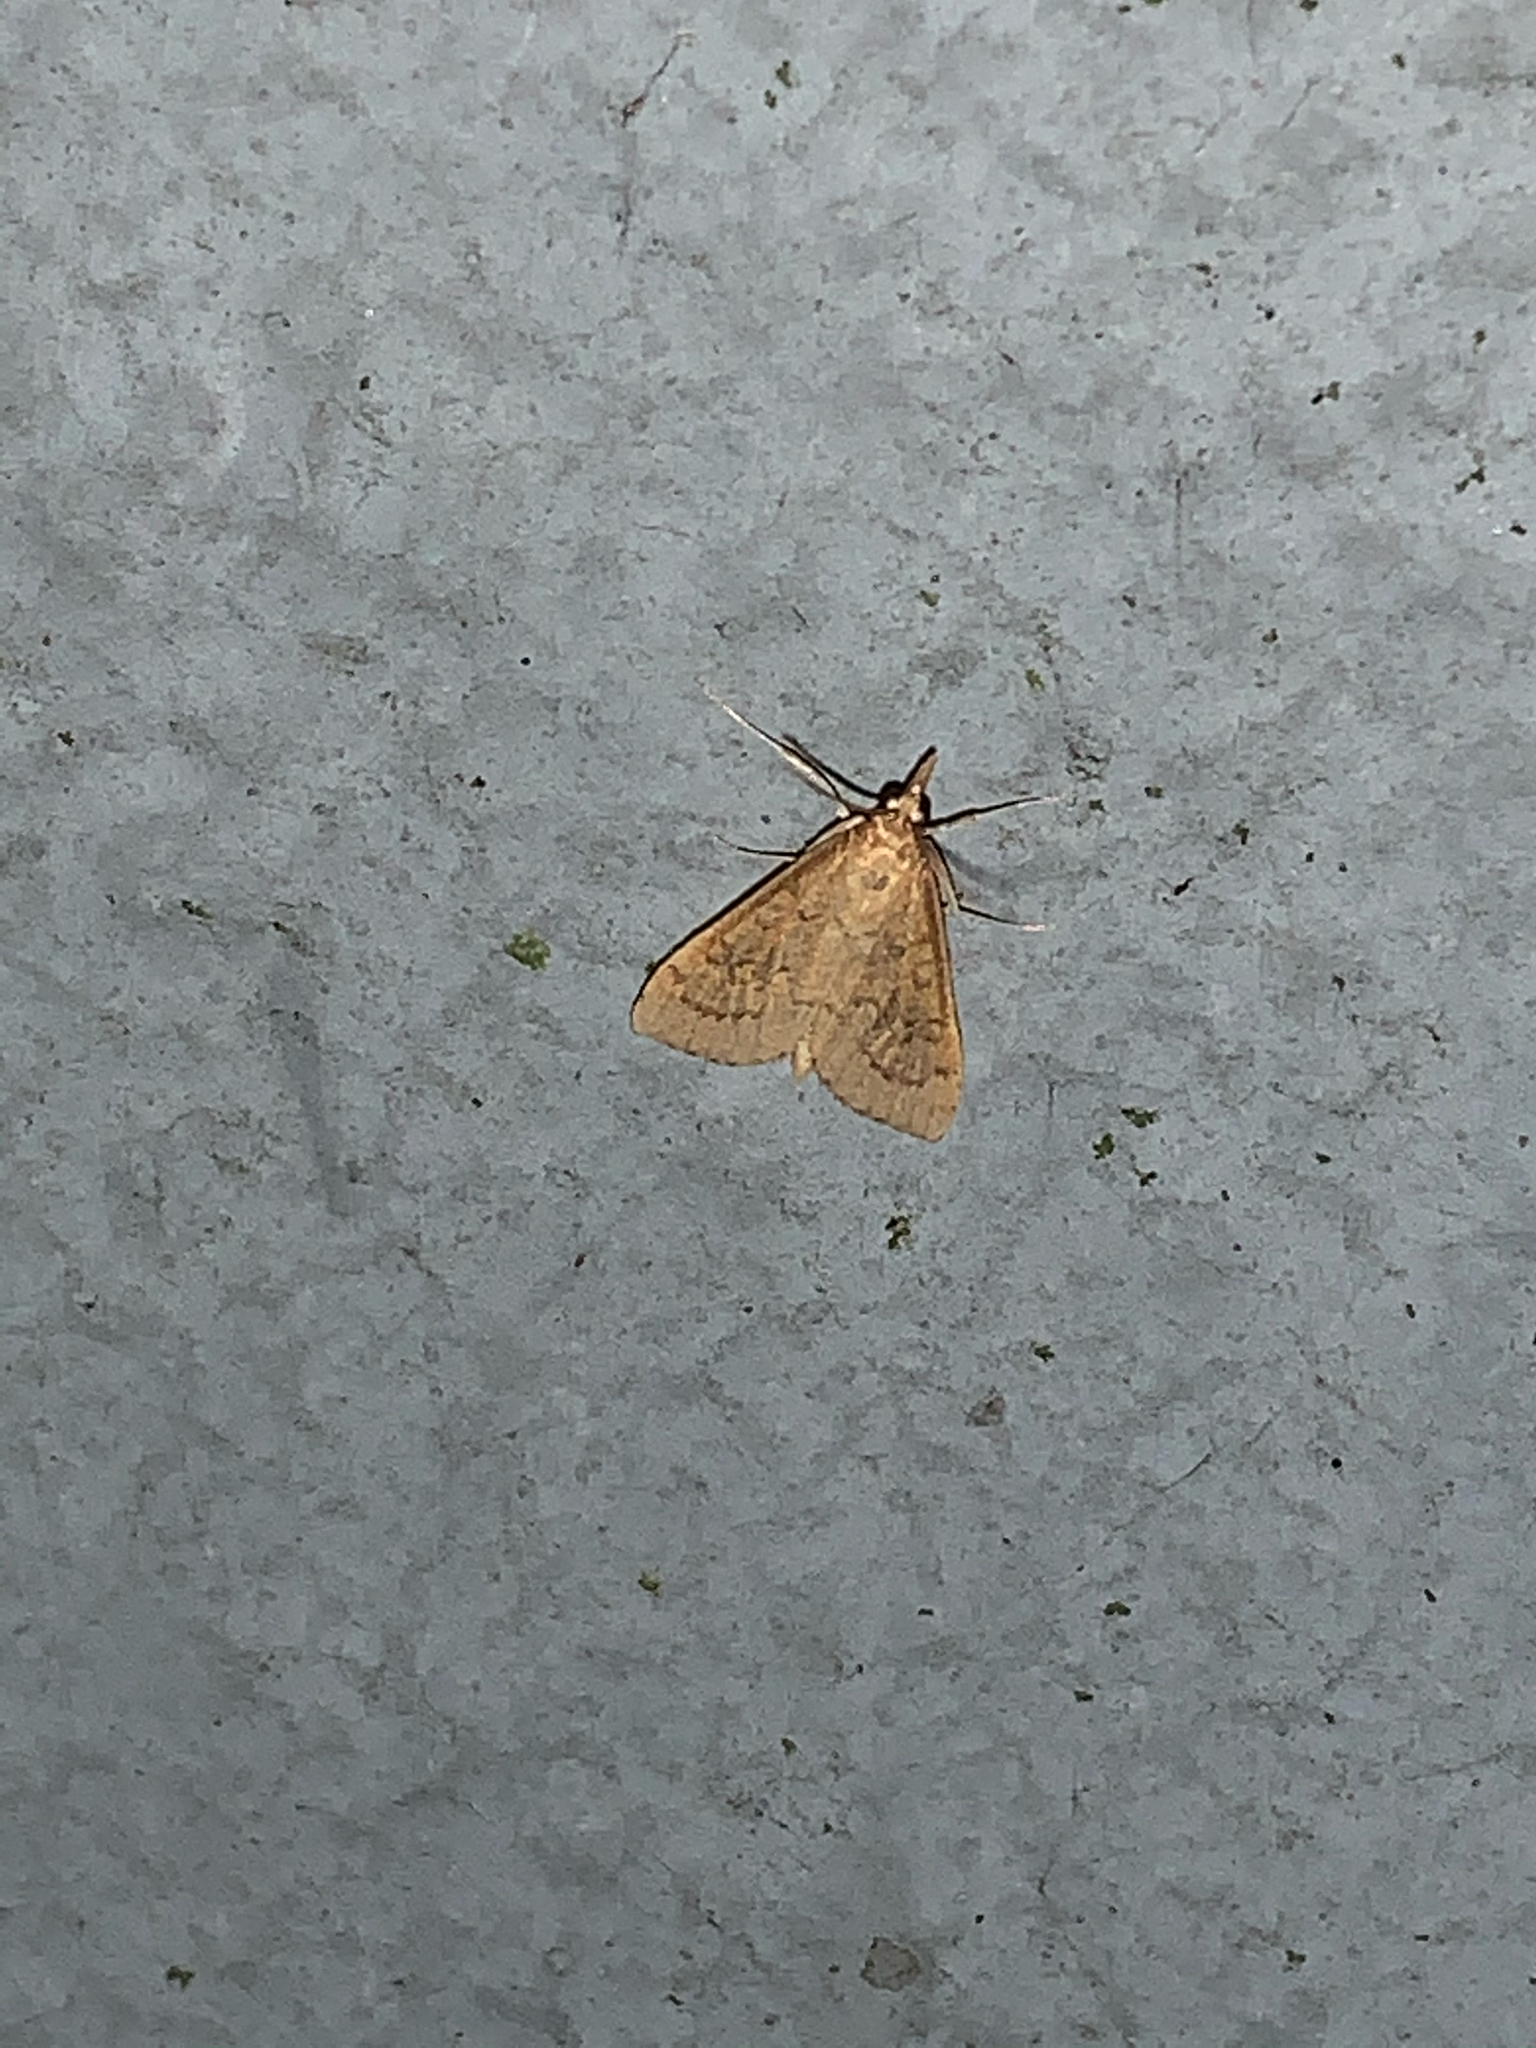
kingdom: Animalia
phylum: Arthropoda
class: Insecta
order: Lepidoptera
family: Crambidae
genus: Udea
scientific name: Udea rubigalis
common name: Celery leaftier moth
